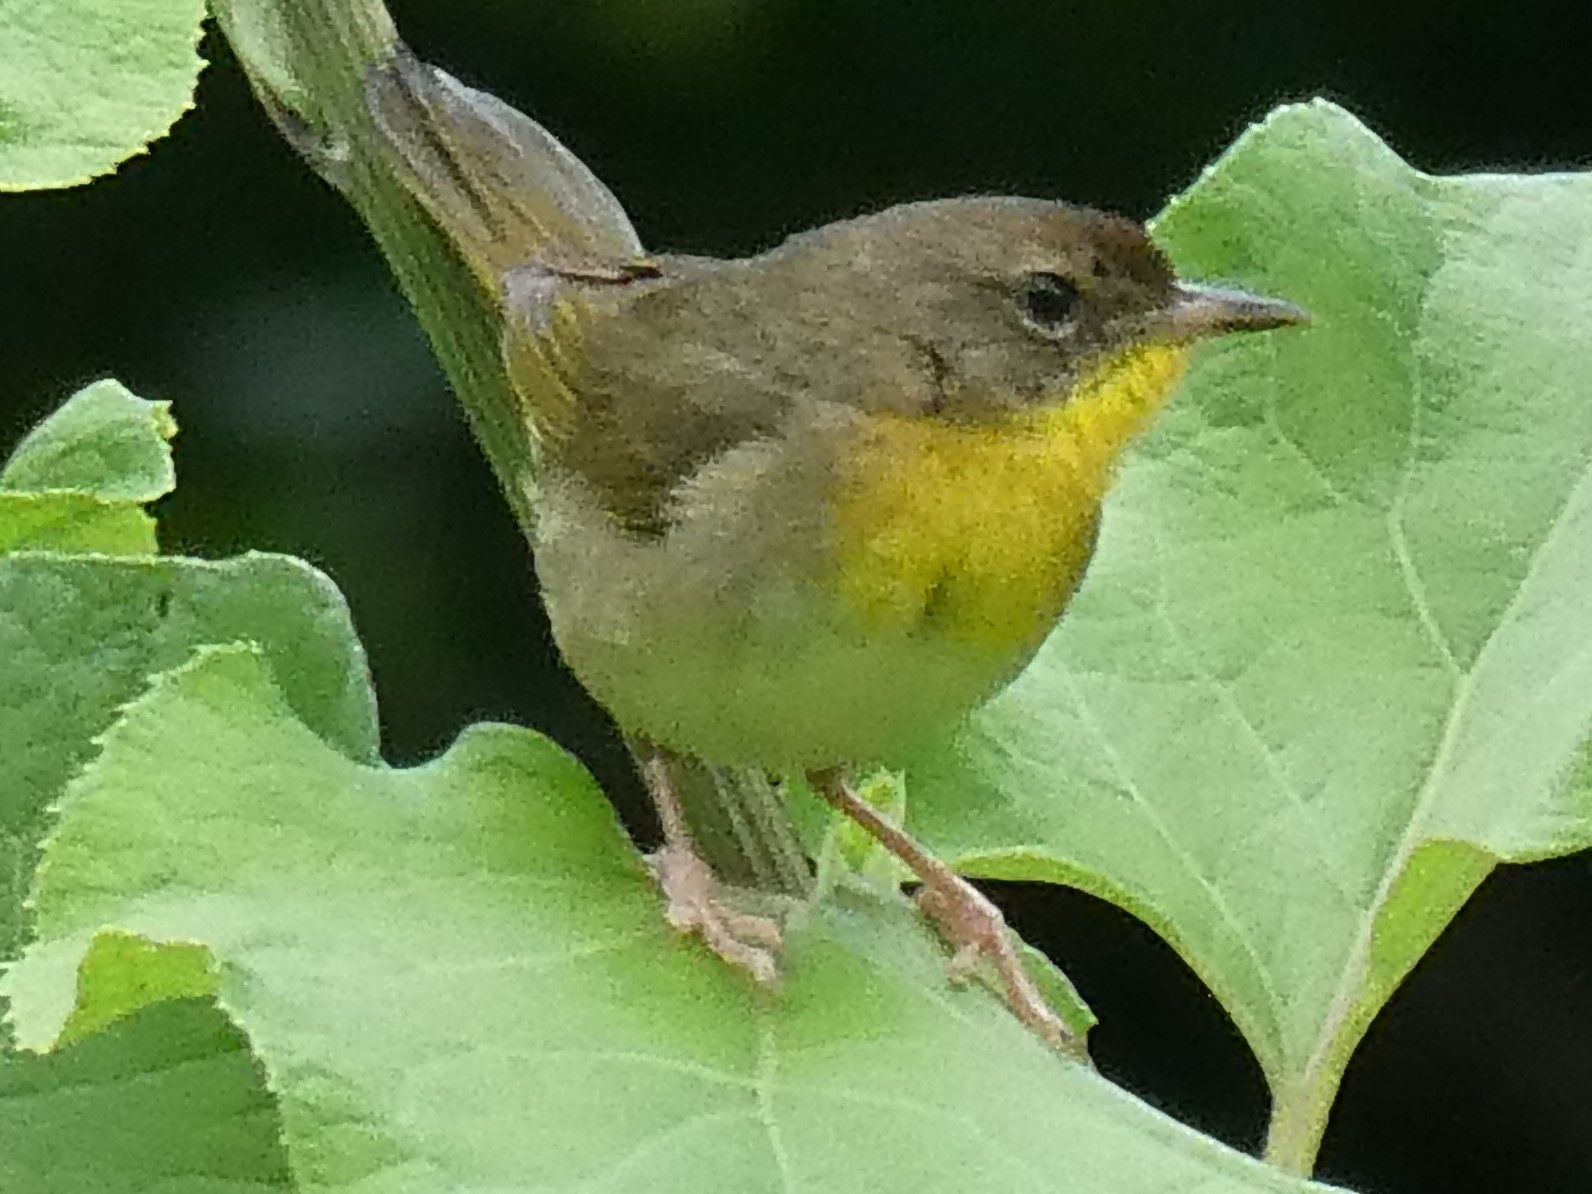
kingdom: Animalia
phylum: Chordata
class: Aves
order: Passeriformes
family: Parulidae
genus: Geothlypis
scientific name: Geothlypis trichas
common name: Common yellowthroat
